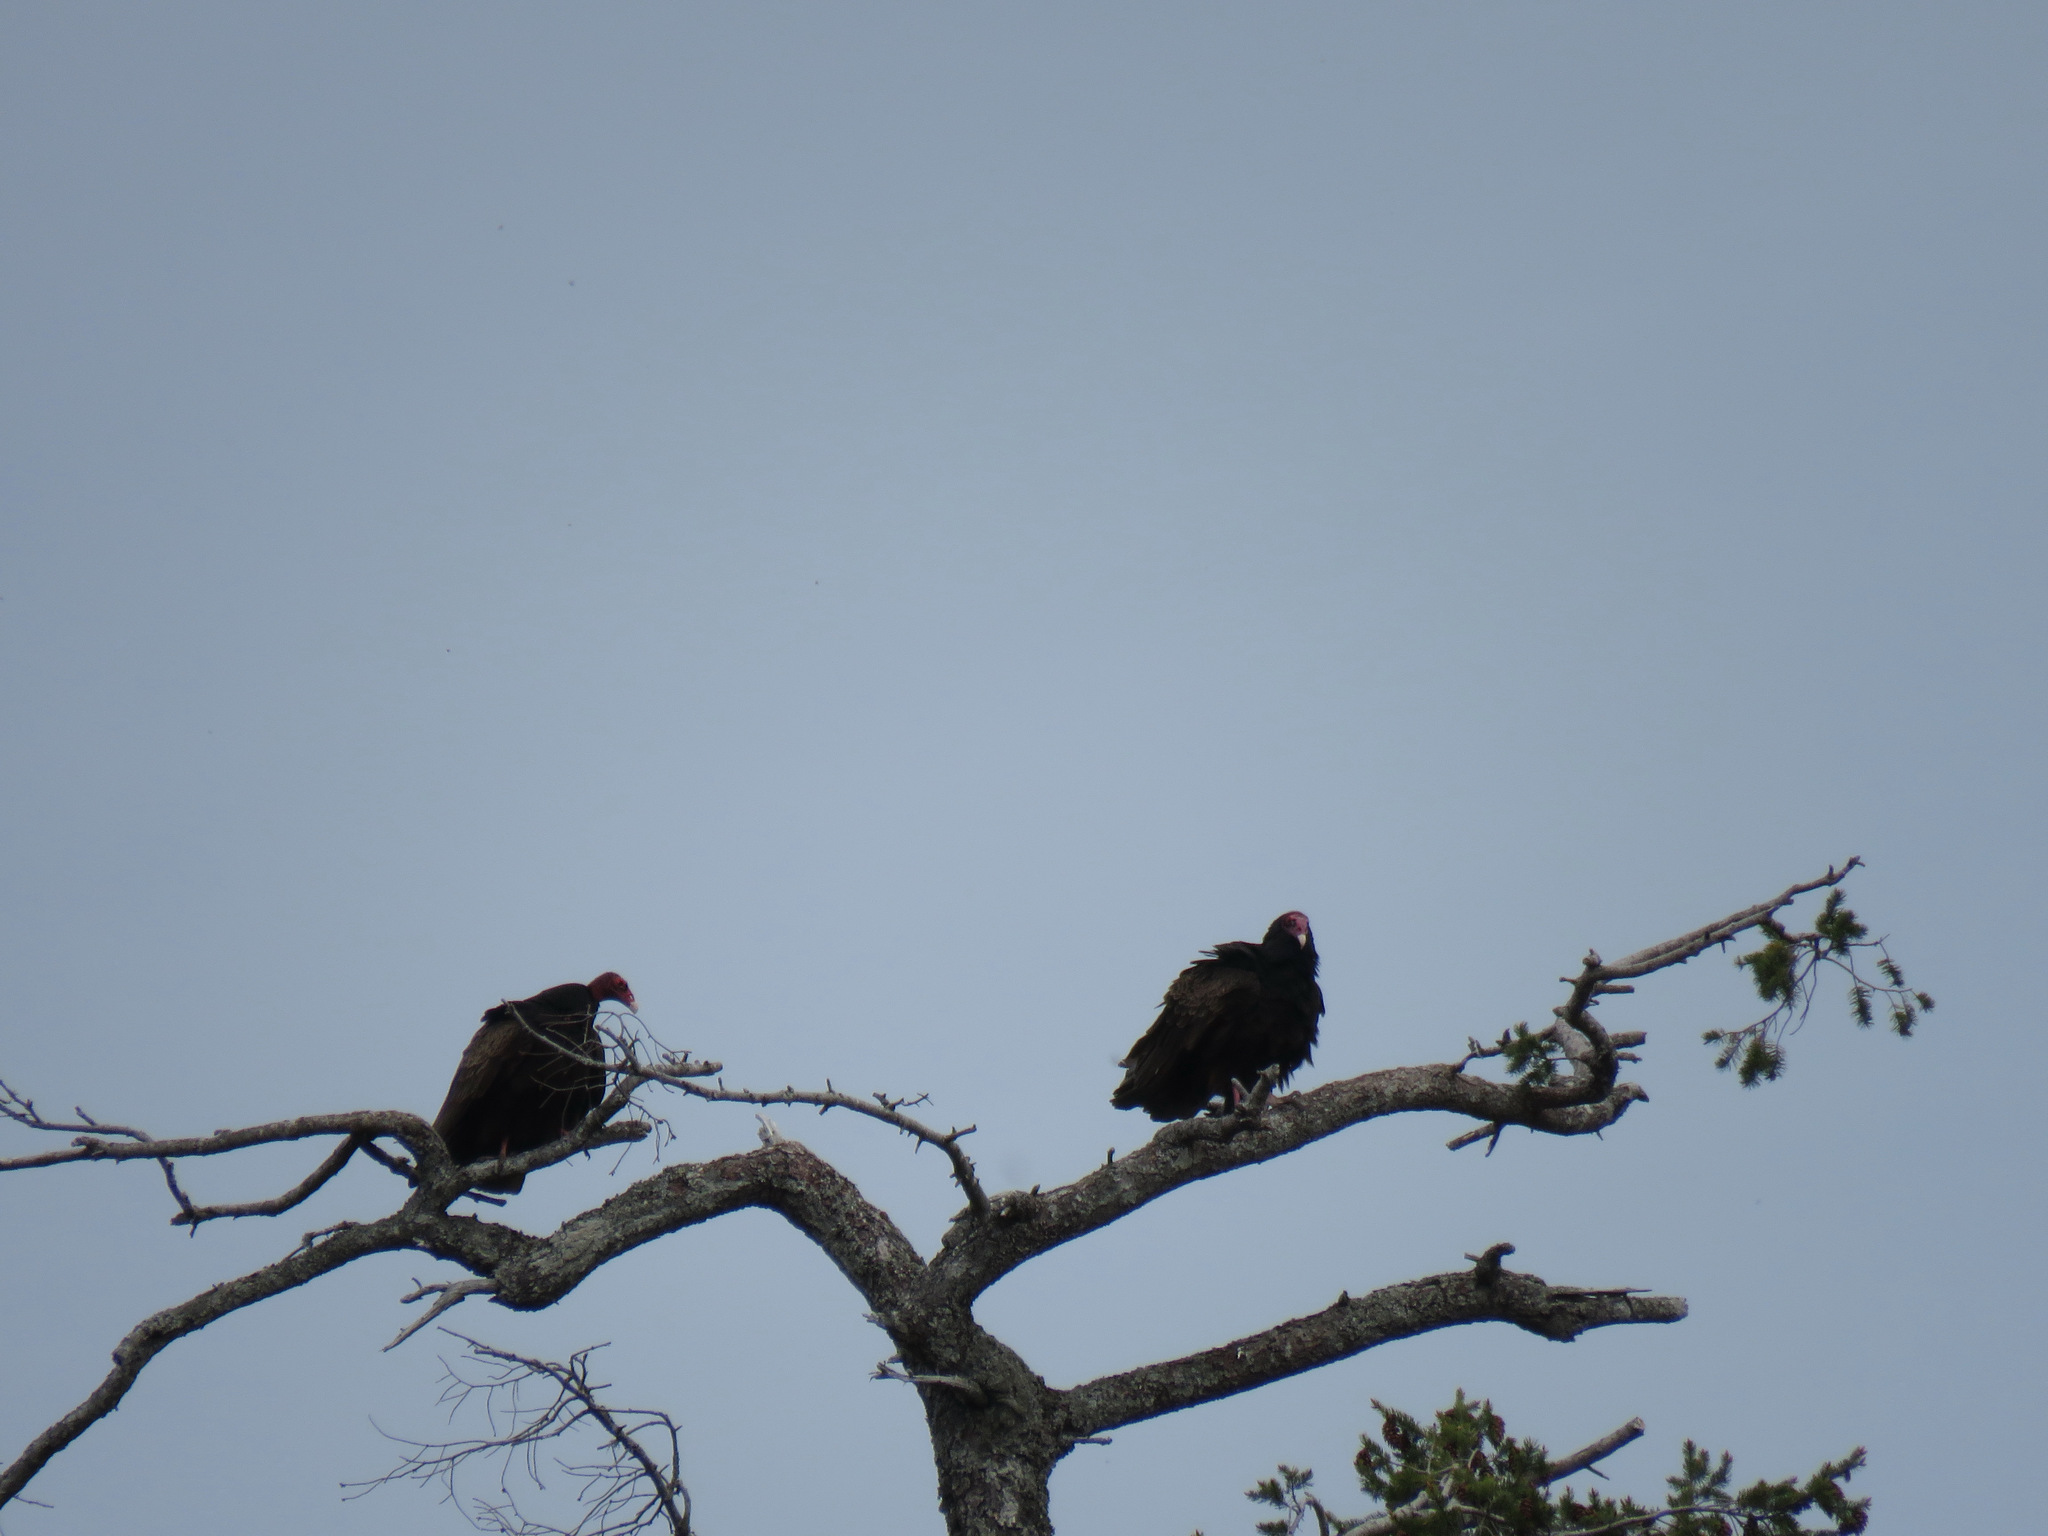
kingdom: Animalia
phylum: Chordata
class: Aves
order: Accipitriformes
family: Cathartidae
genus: Cathartes
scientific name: Cathartes aura
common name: Turkey vulture
